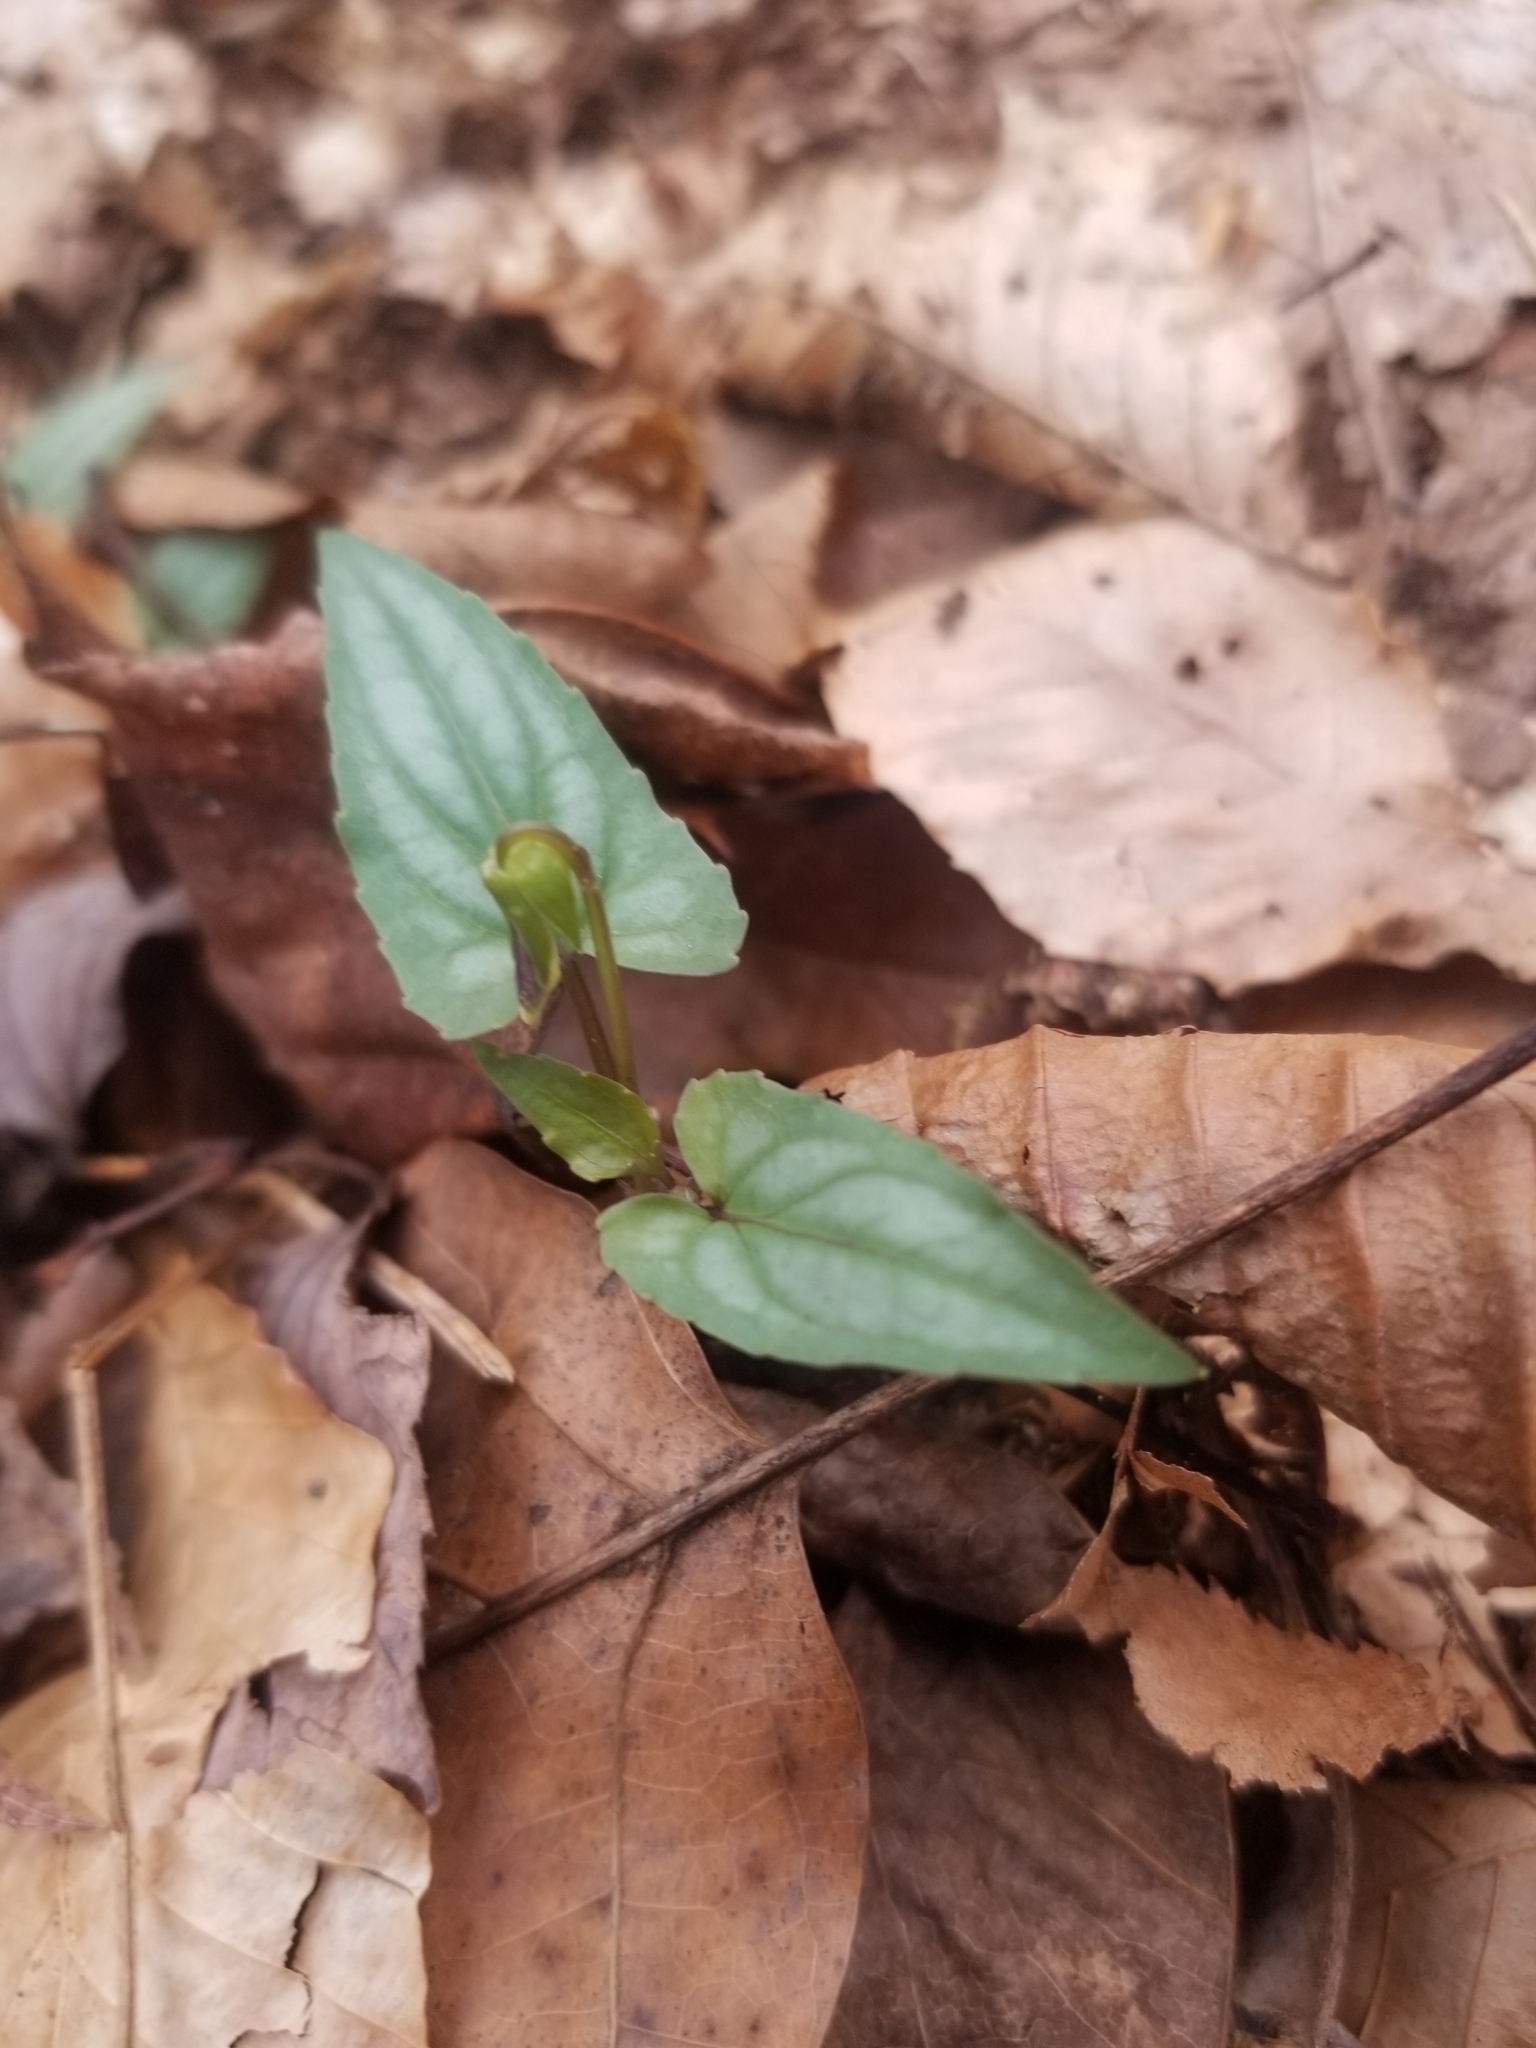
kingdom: Plantae
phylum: Tracheophyta
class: Magnoliopsida
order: Malpighiales
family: Violaceae
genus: Viola
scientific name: Viola hastata
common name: Spear-leaf violet
